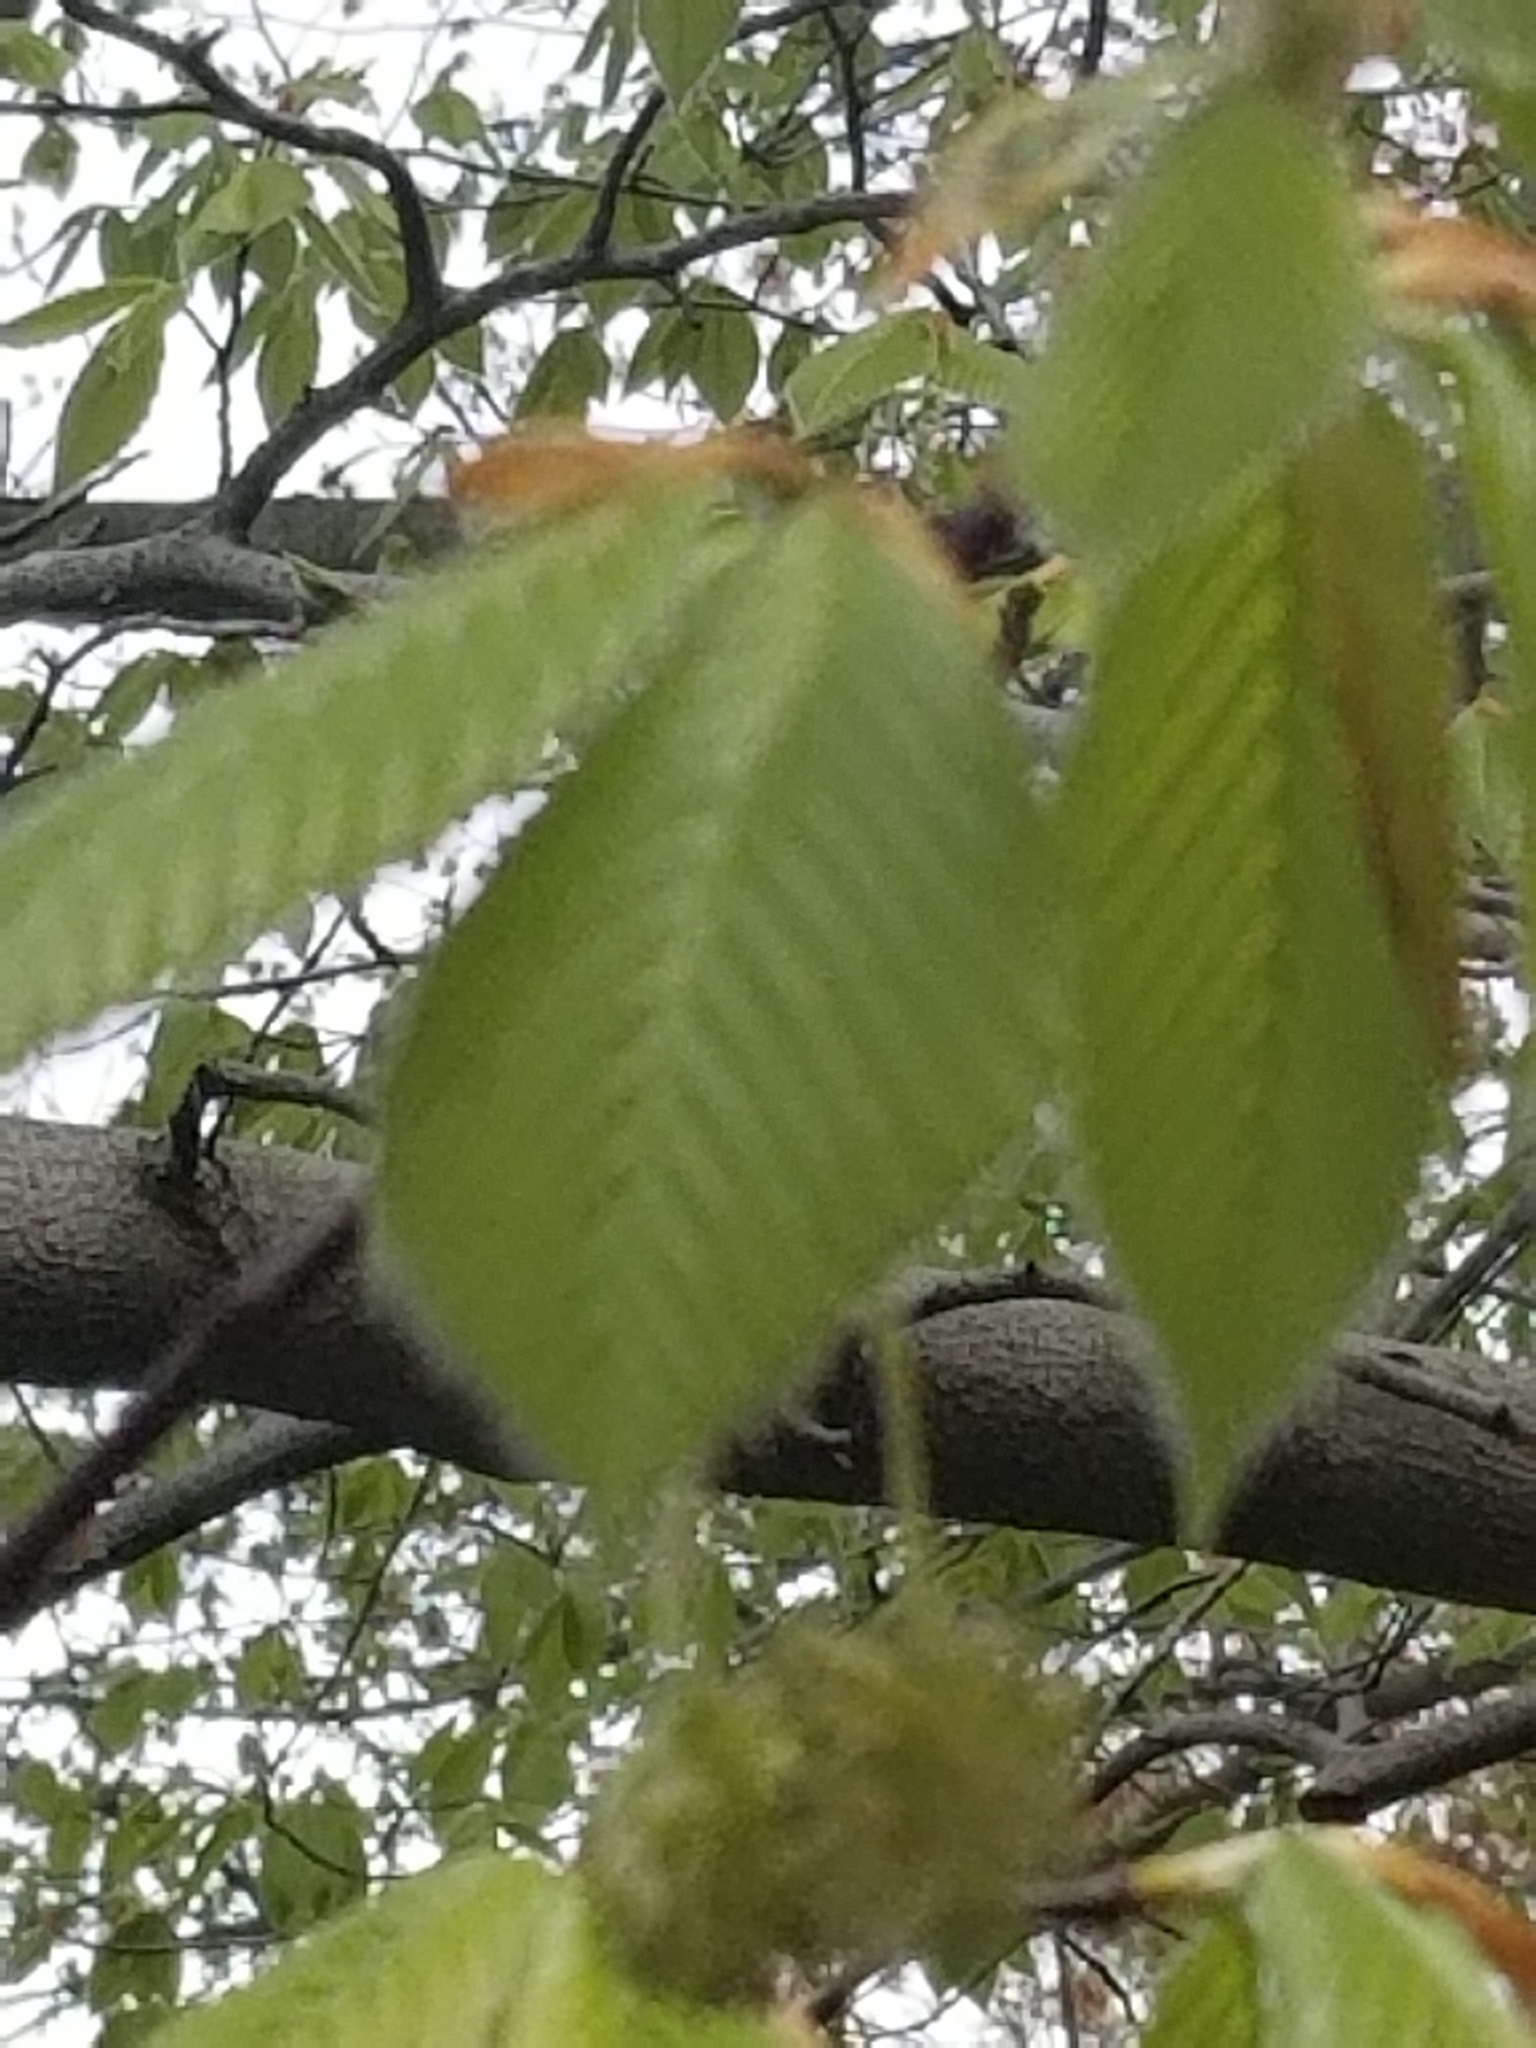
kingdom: Plantae
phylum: Tracheophyta
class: Magnoliopsida
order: Fagales
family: Fagaceae
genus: Fagus
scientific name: Fagus grandifolia
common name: American beech
